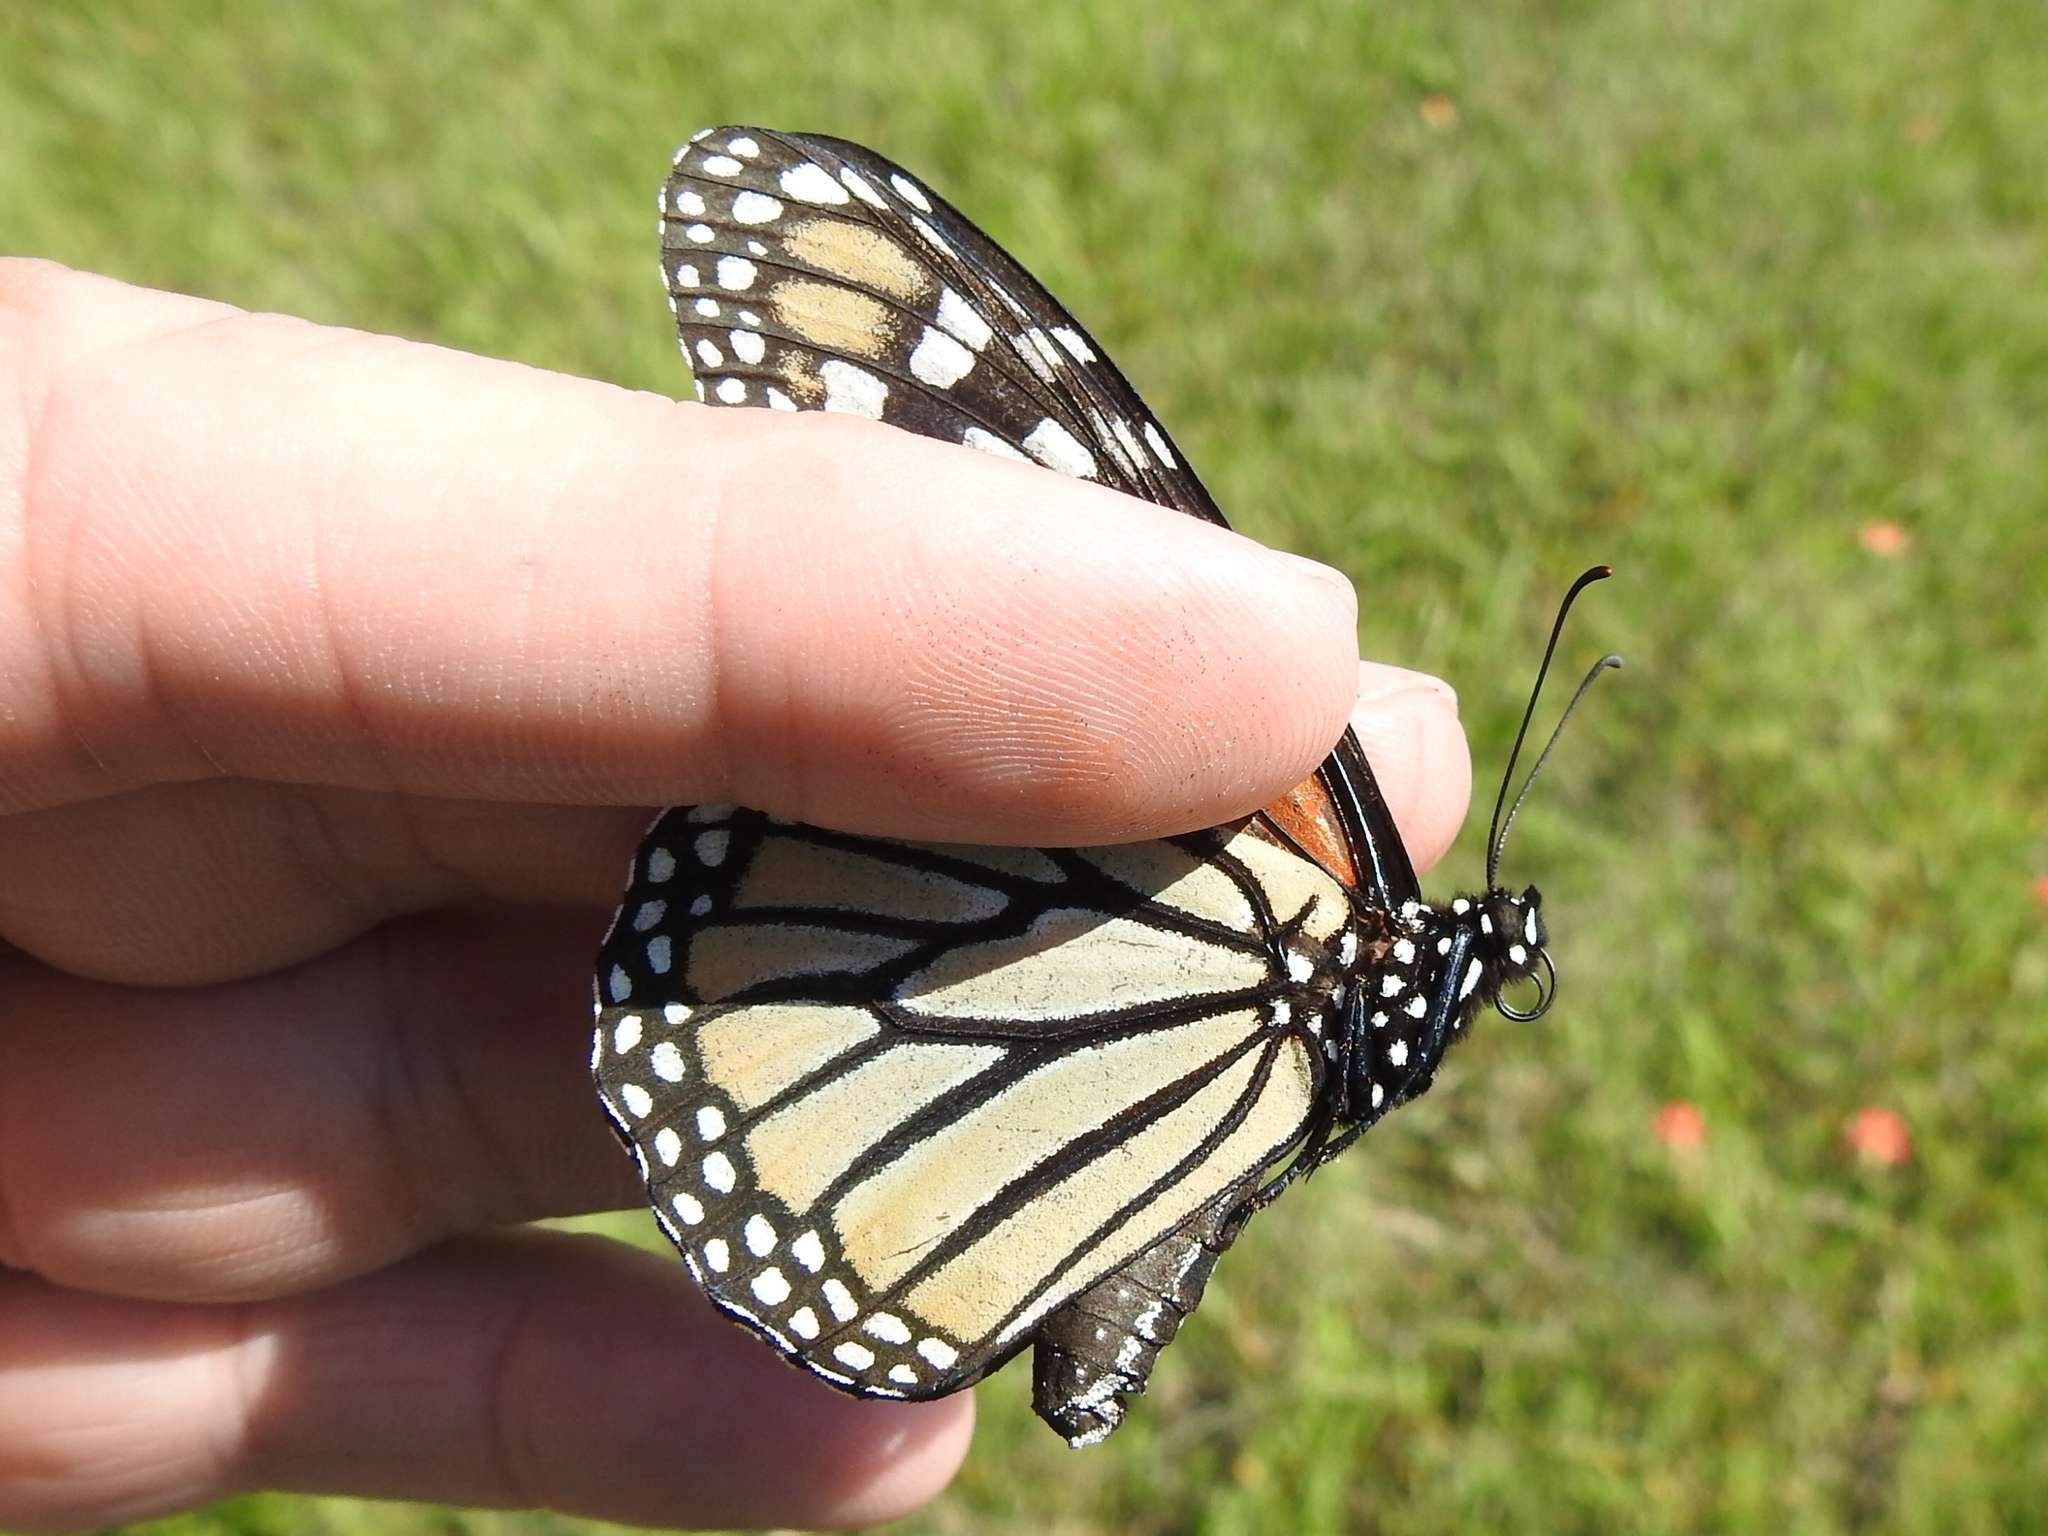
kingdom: Animalia
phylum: Arthropoda
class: Insecta
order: Lepidoptera
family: Nymphalidae
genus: Danaus
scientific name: Danaus plexippus
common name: Monarch
